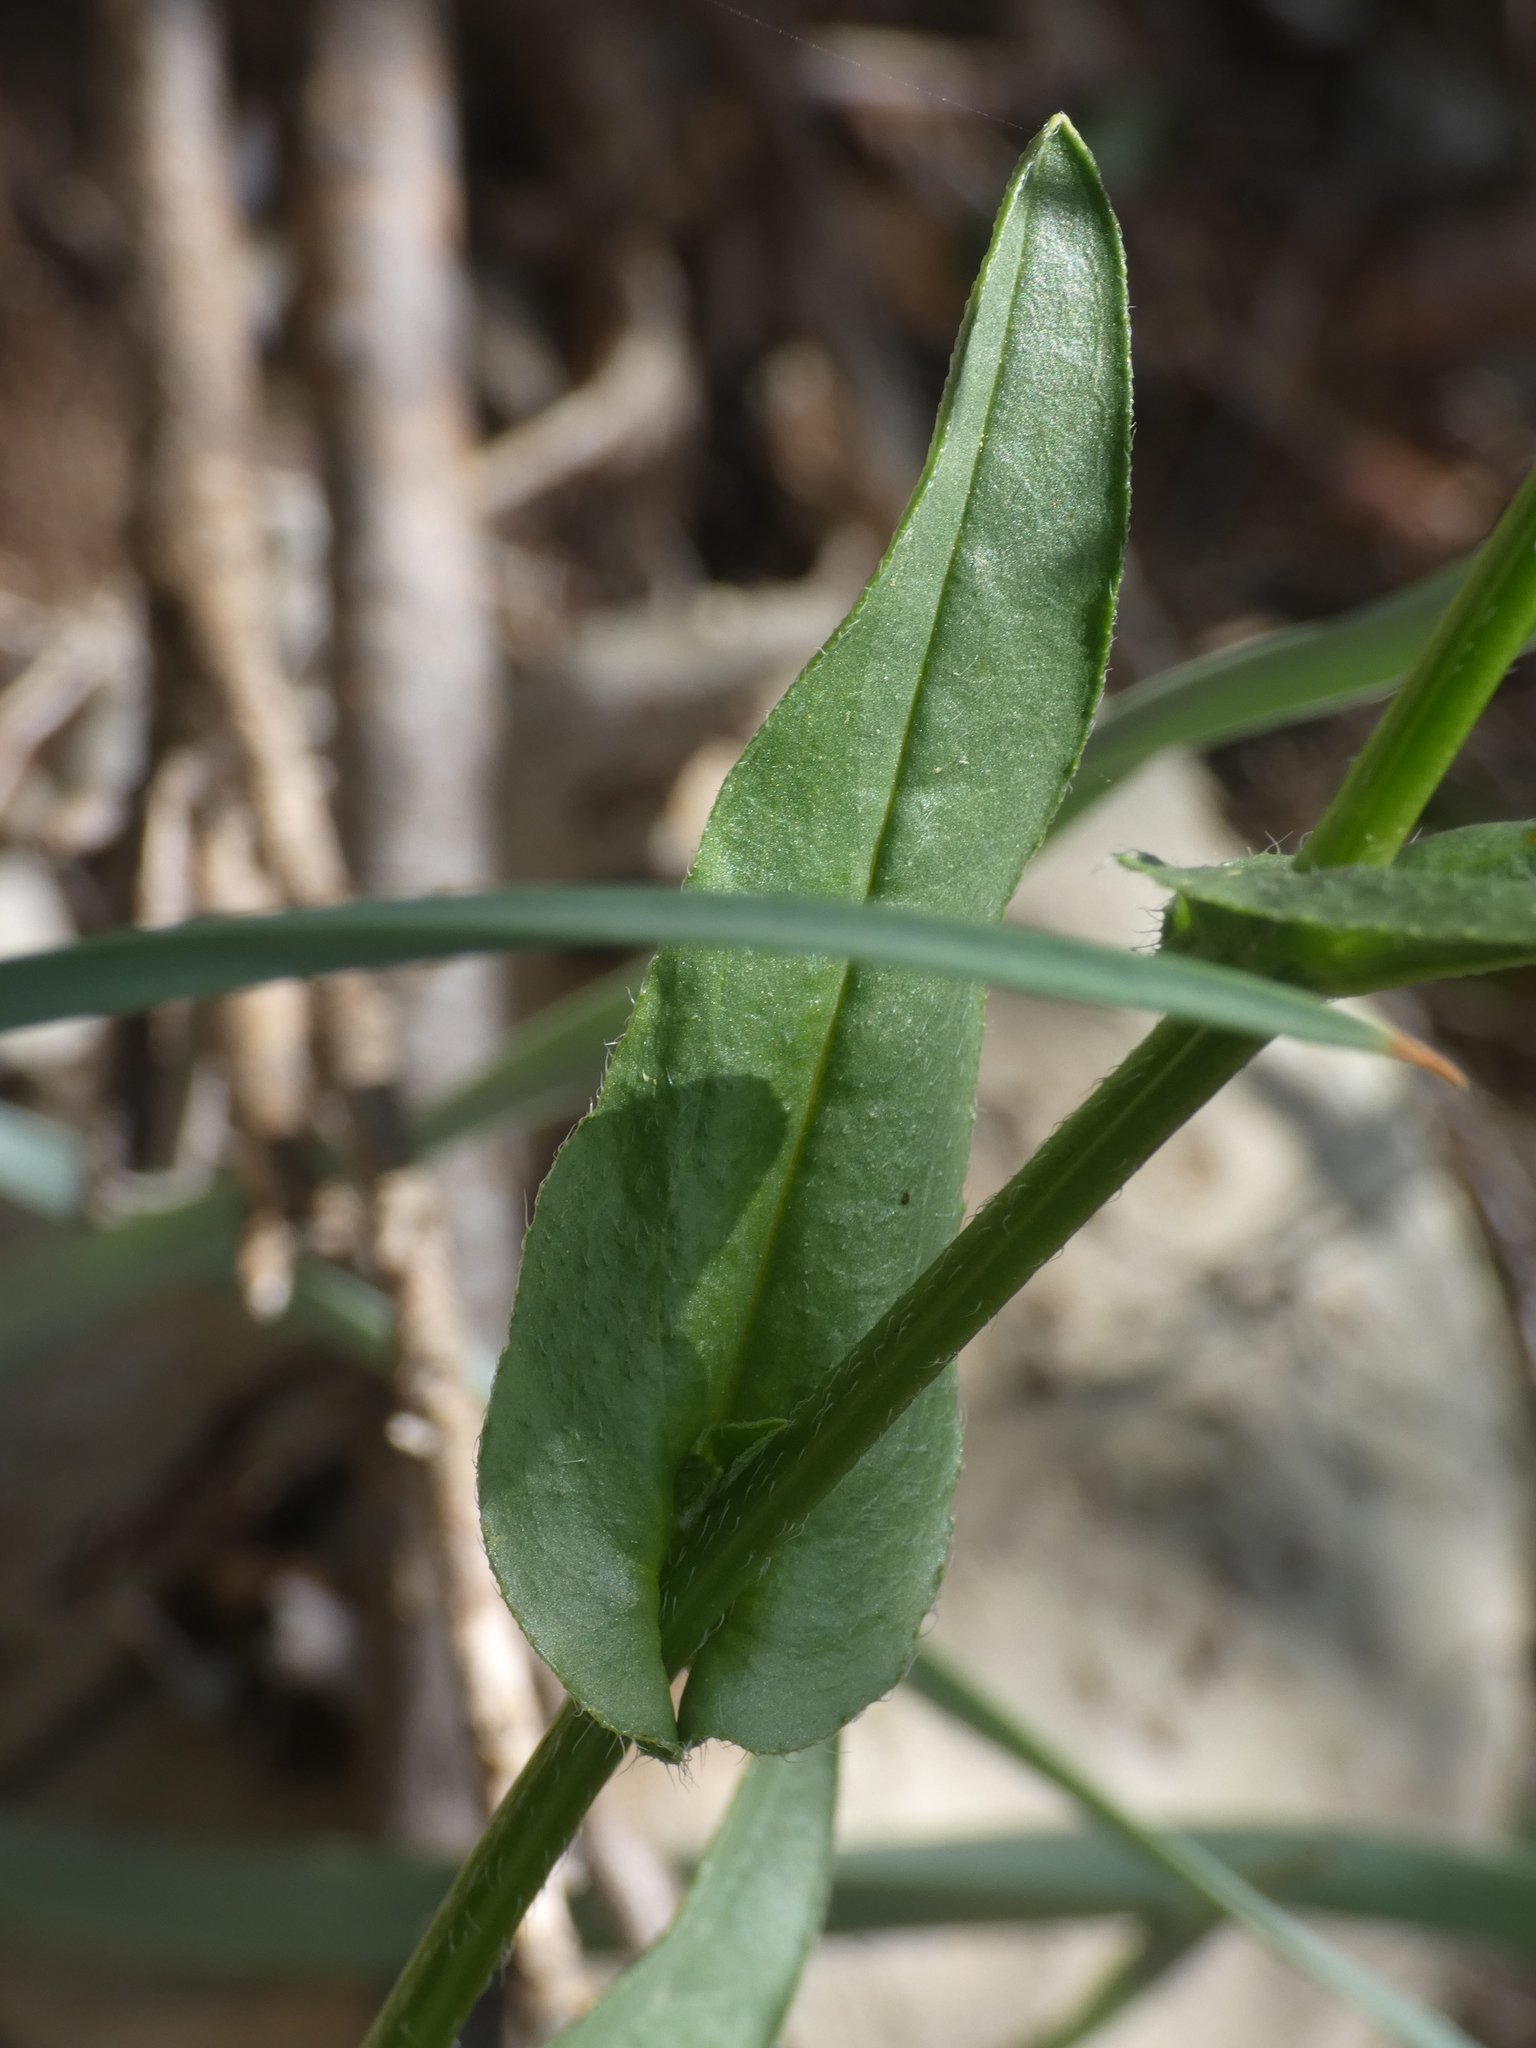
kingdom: Plantae
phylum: Tracheophyta
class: Magnoliopsida
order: Boraginales
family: Boraginaceae
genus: Cynoglossum
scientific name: Cynoglossum pustulatum
